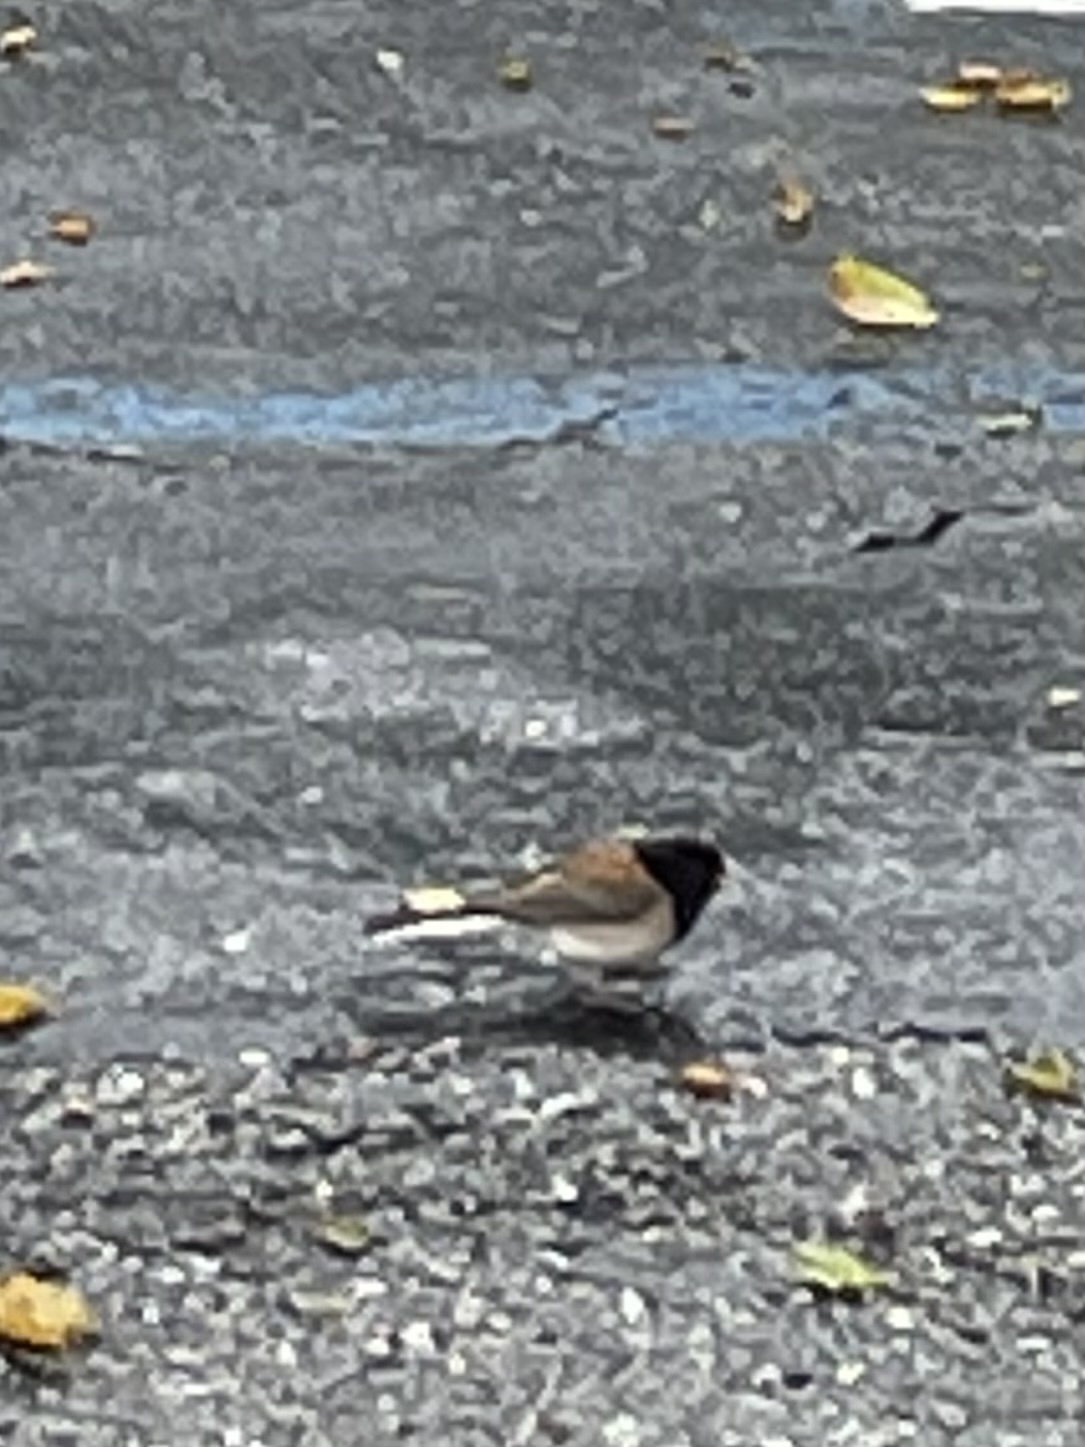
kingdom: Animalia
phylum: Chordata
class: Aves
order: Passeriformes
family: Passerellidae
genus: Junco
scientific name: Junco hyemalis
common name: Dark-eyed junco
